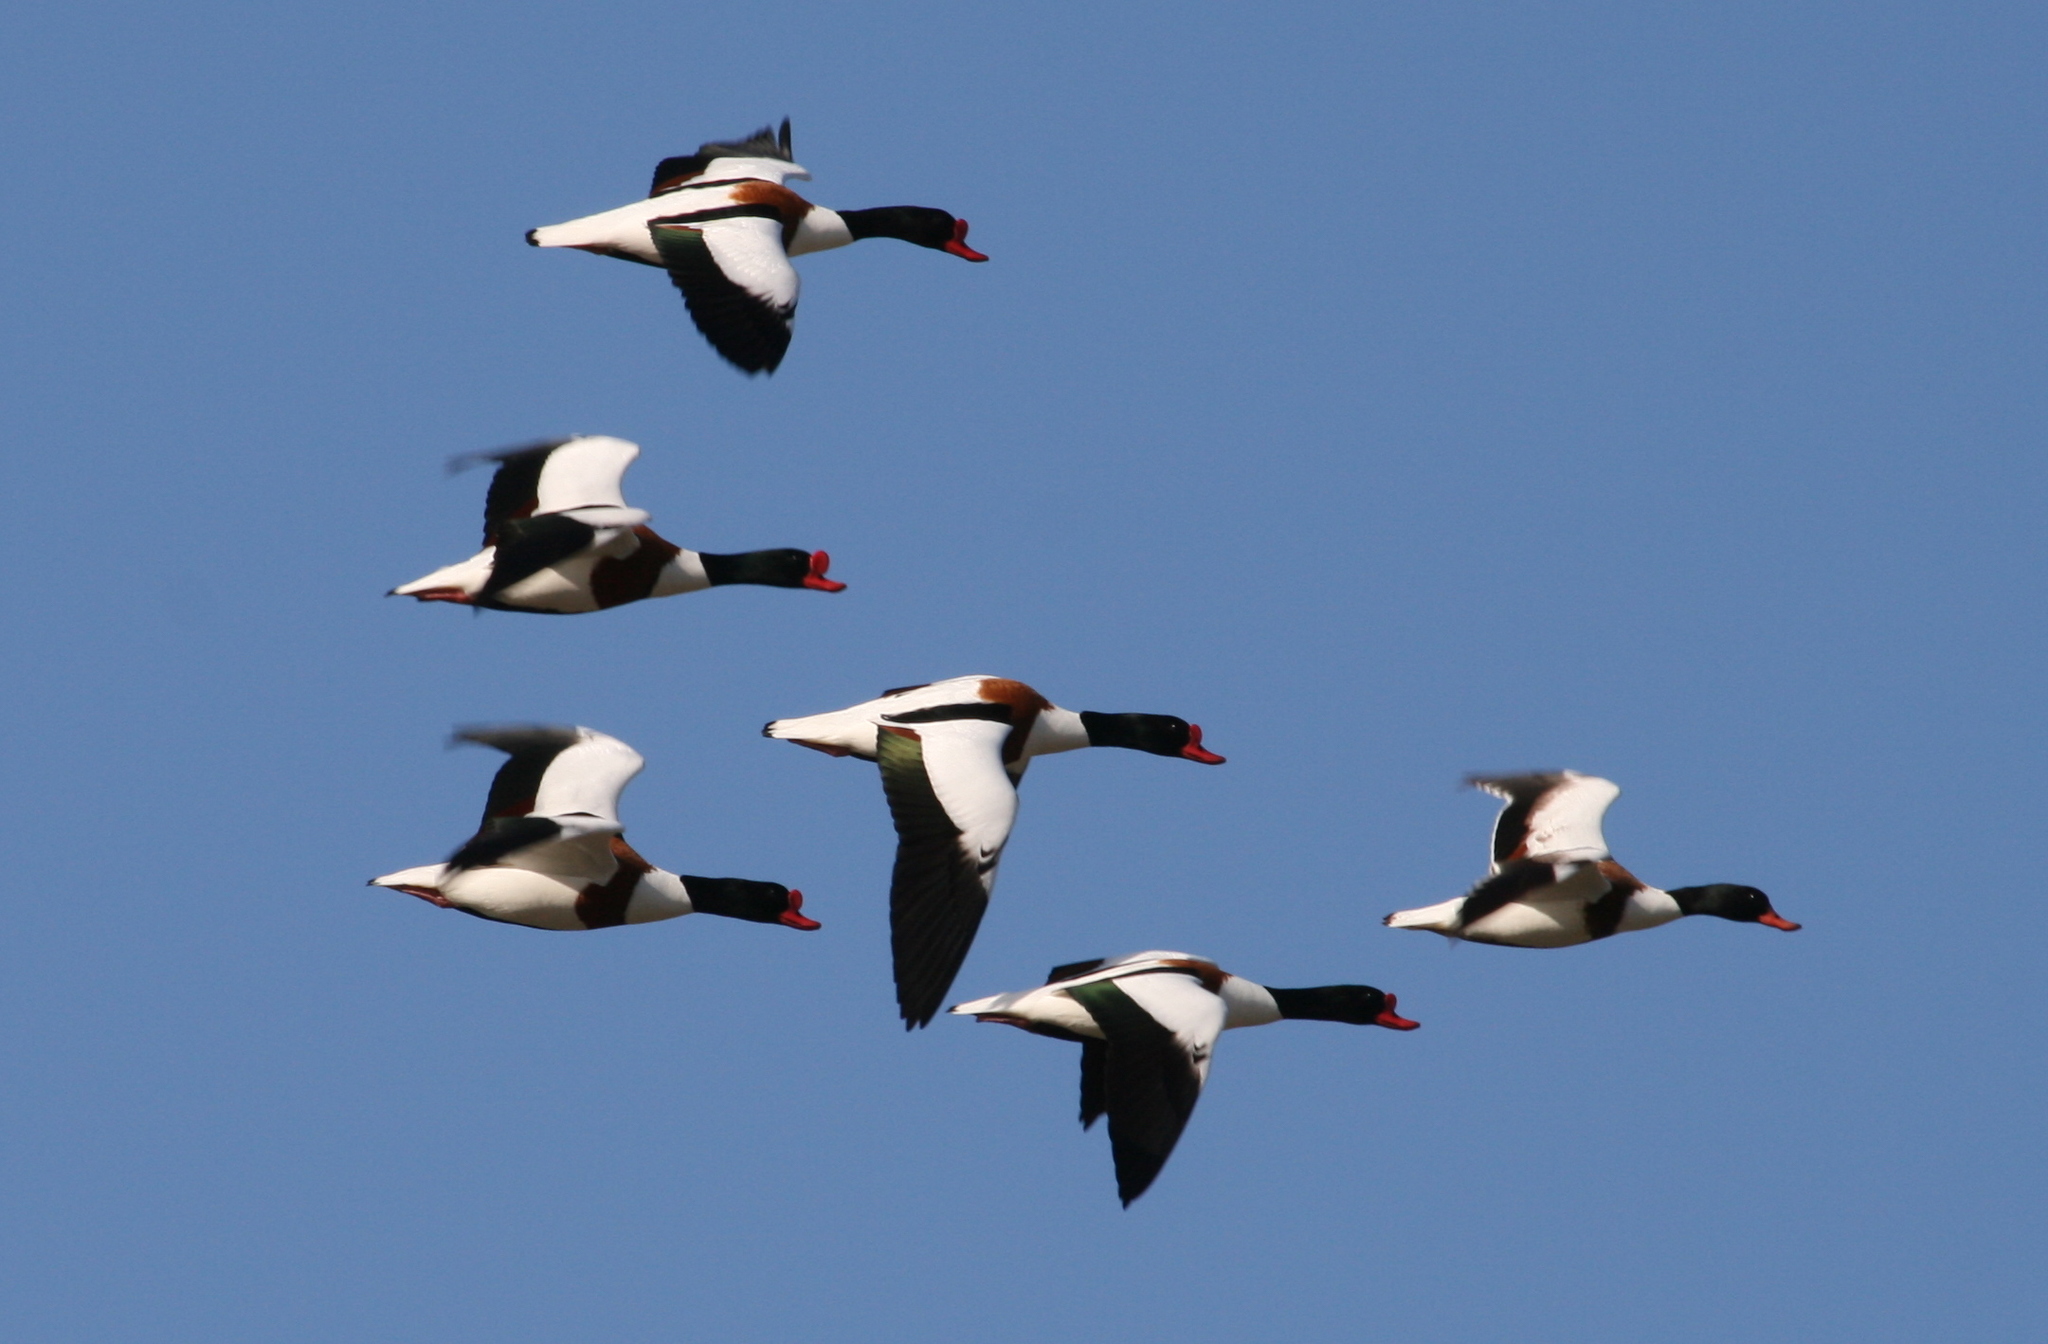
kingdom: Animalia
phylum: Chordata
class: Aves
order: Anseriformes
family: Anatidae
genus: Tadorna
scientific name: Tadorna tadorna
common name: Common shelduck
